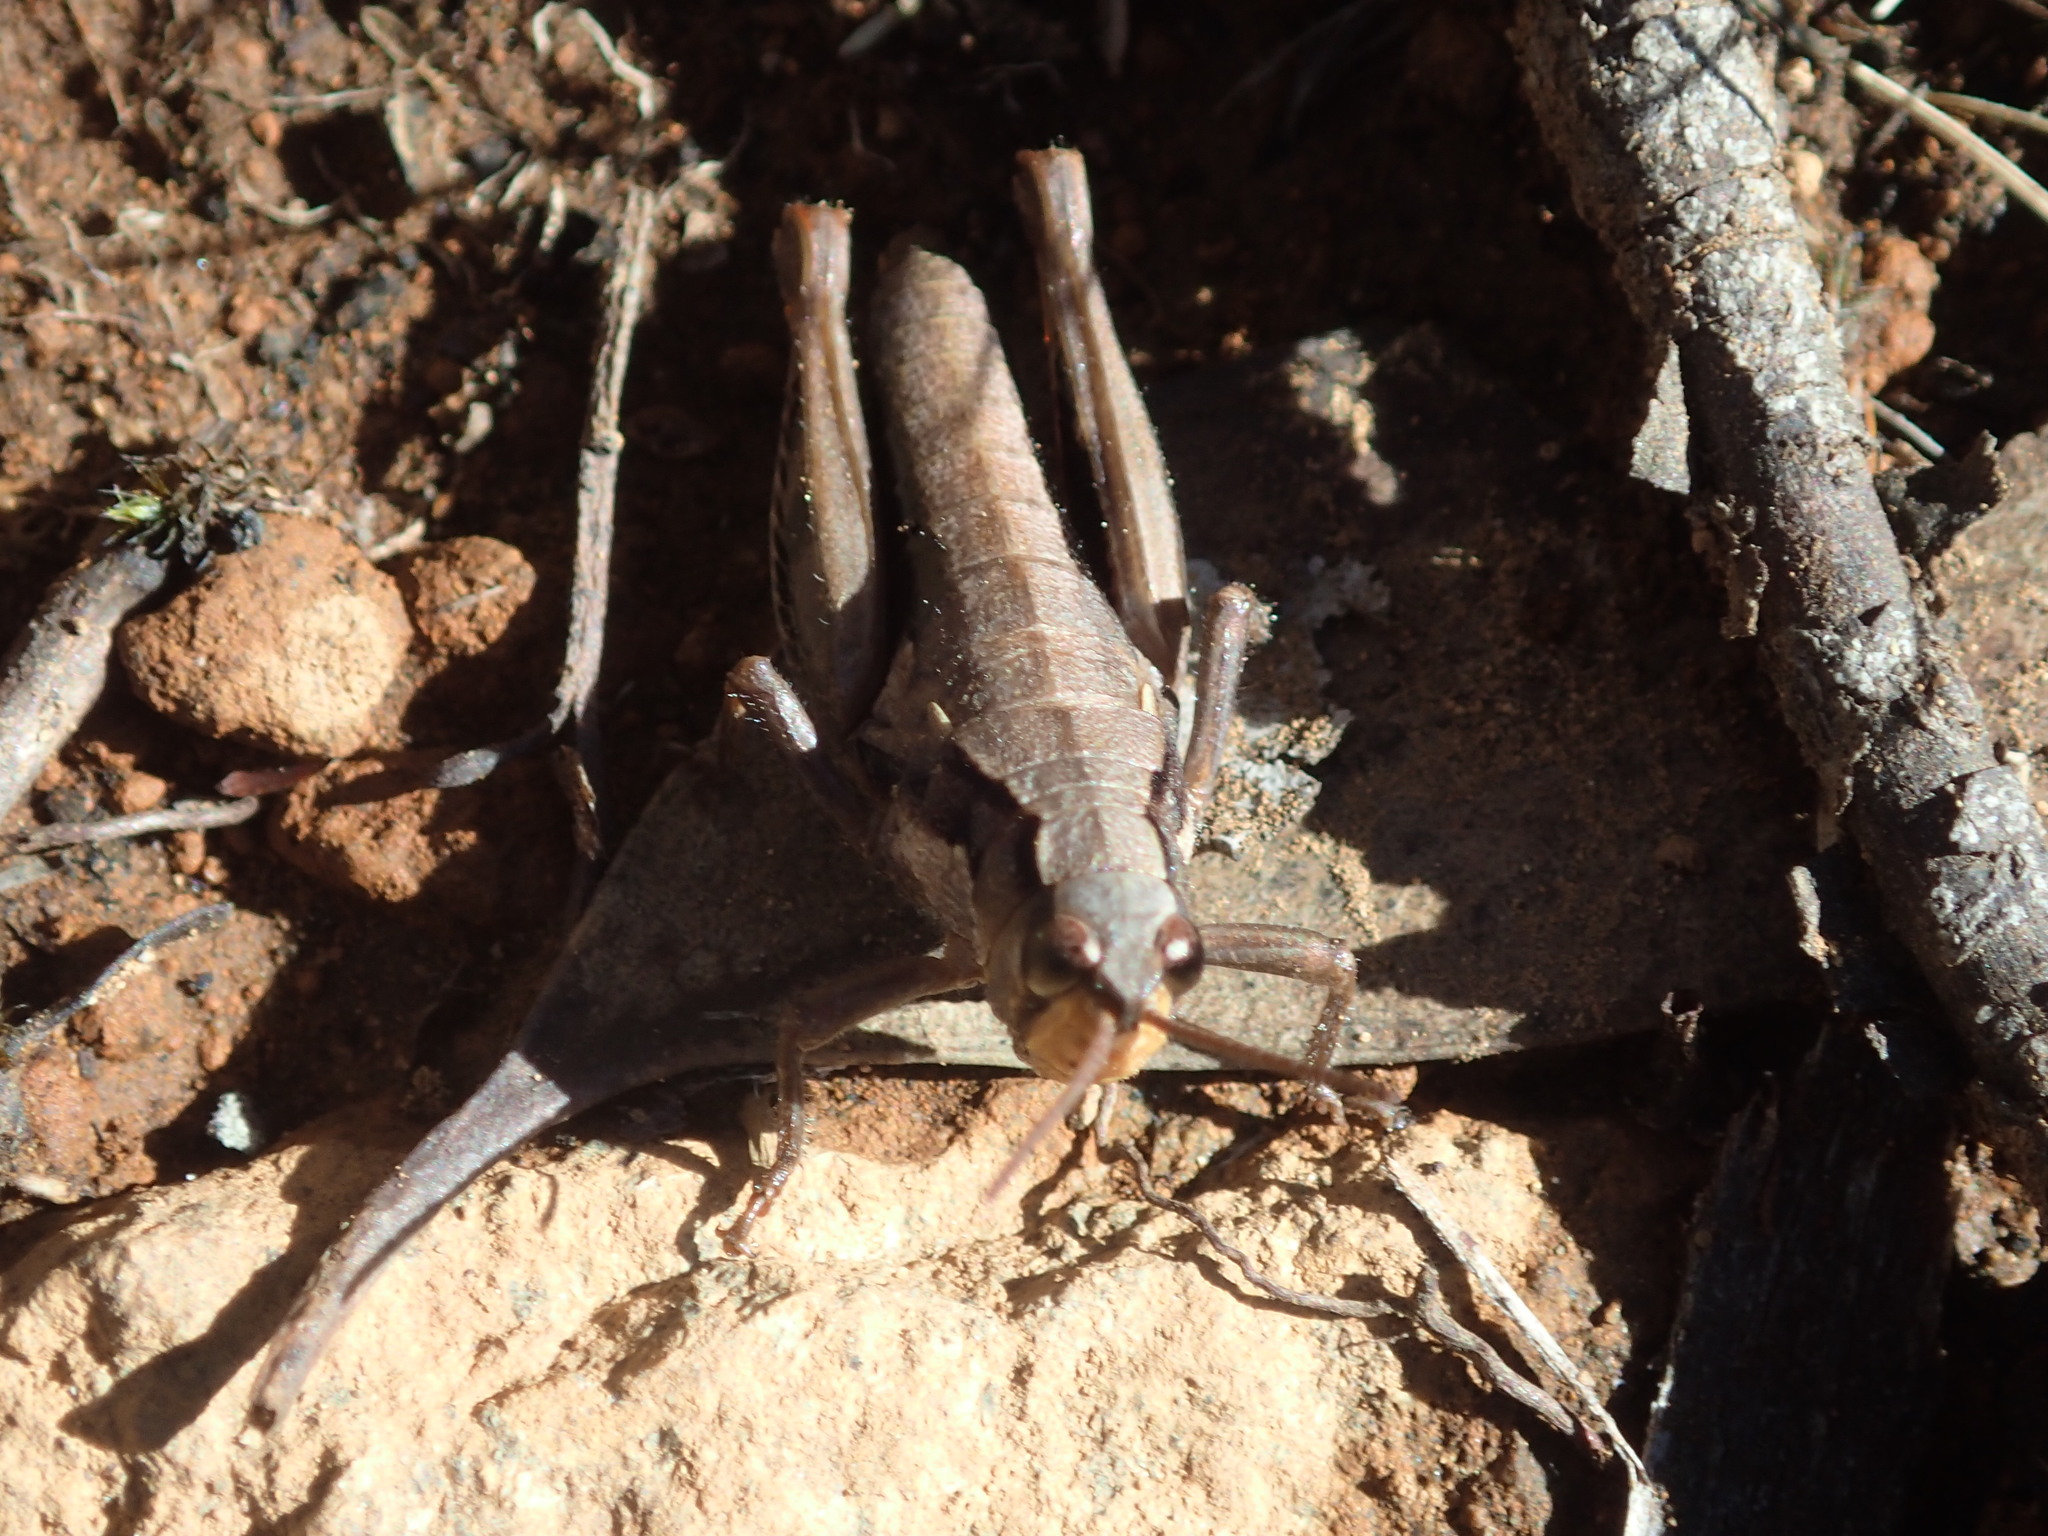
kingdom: Animalia
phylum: Arthropoda
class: Insecta
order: Orthoptera
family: Acrididae
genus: Tasmaniacris
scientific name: Tasmaniacris tasmaniensis
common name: Tasmanian grasshopper
